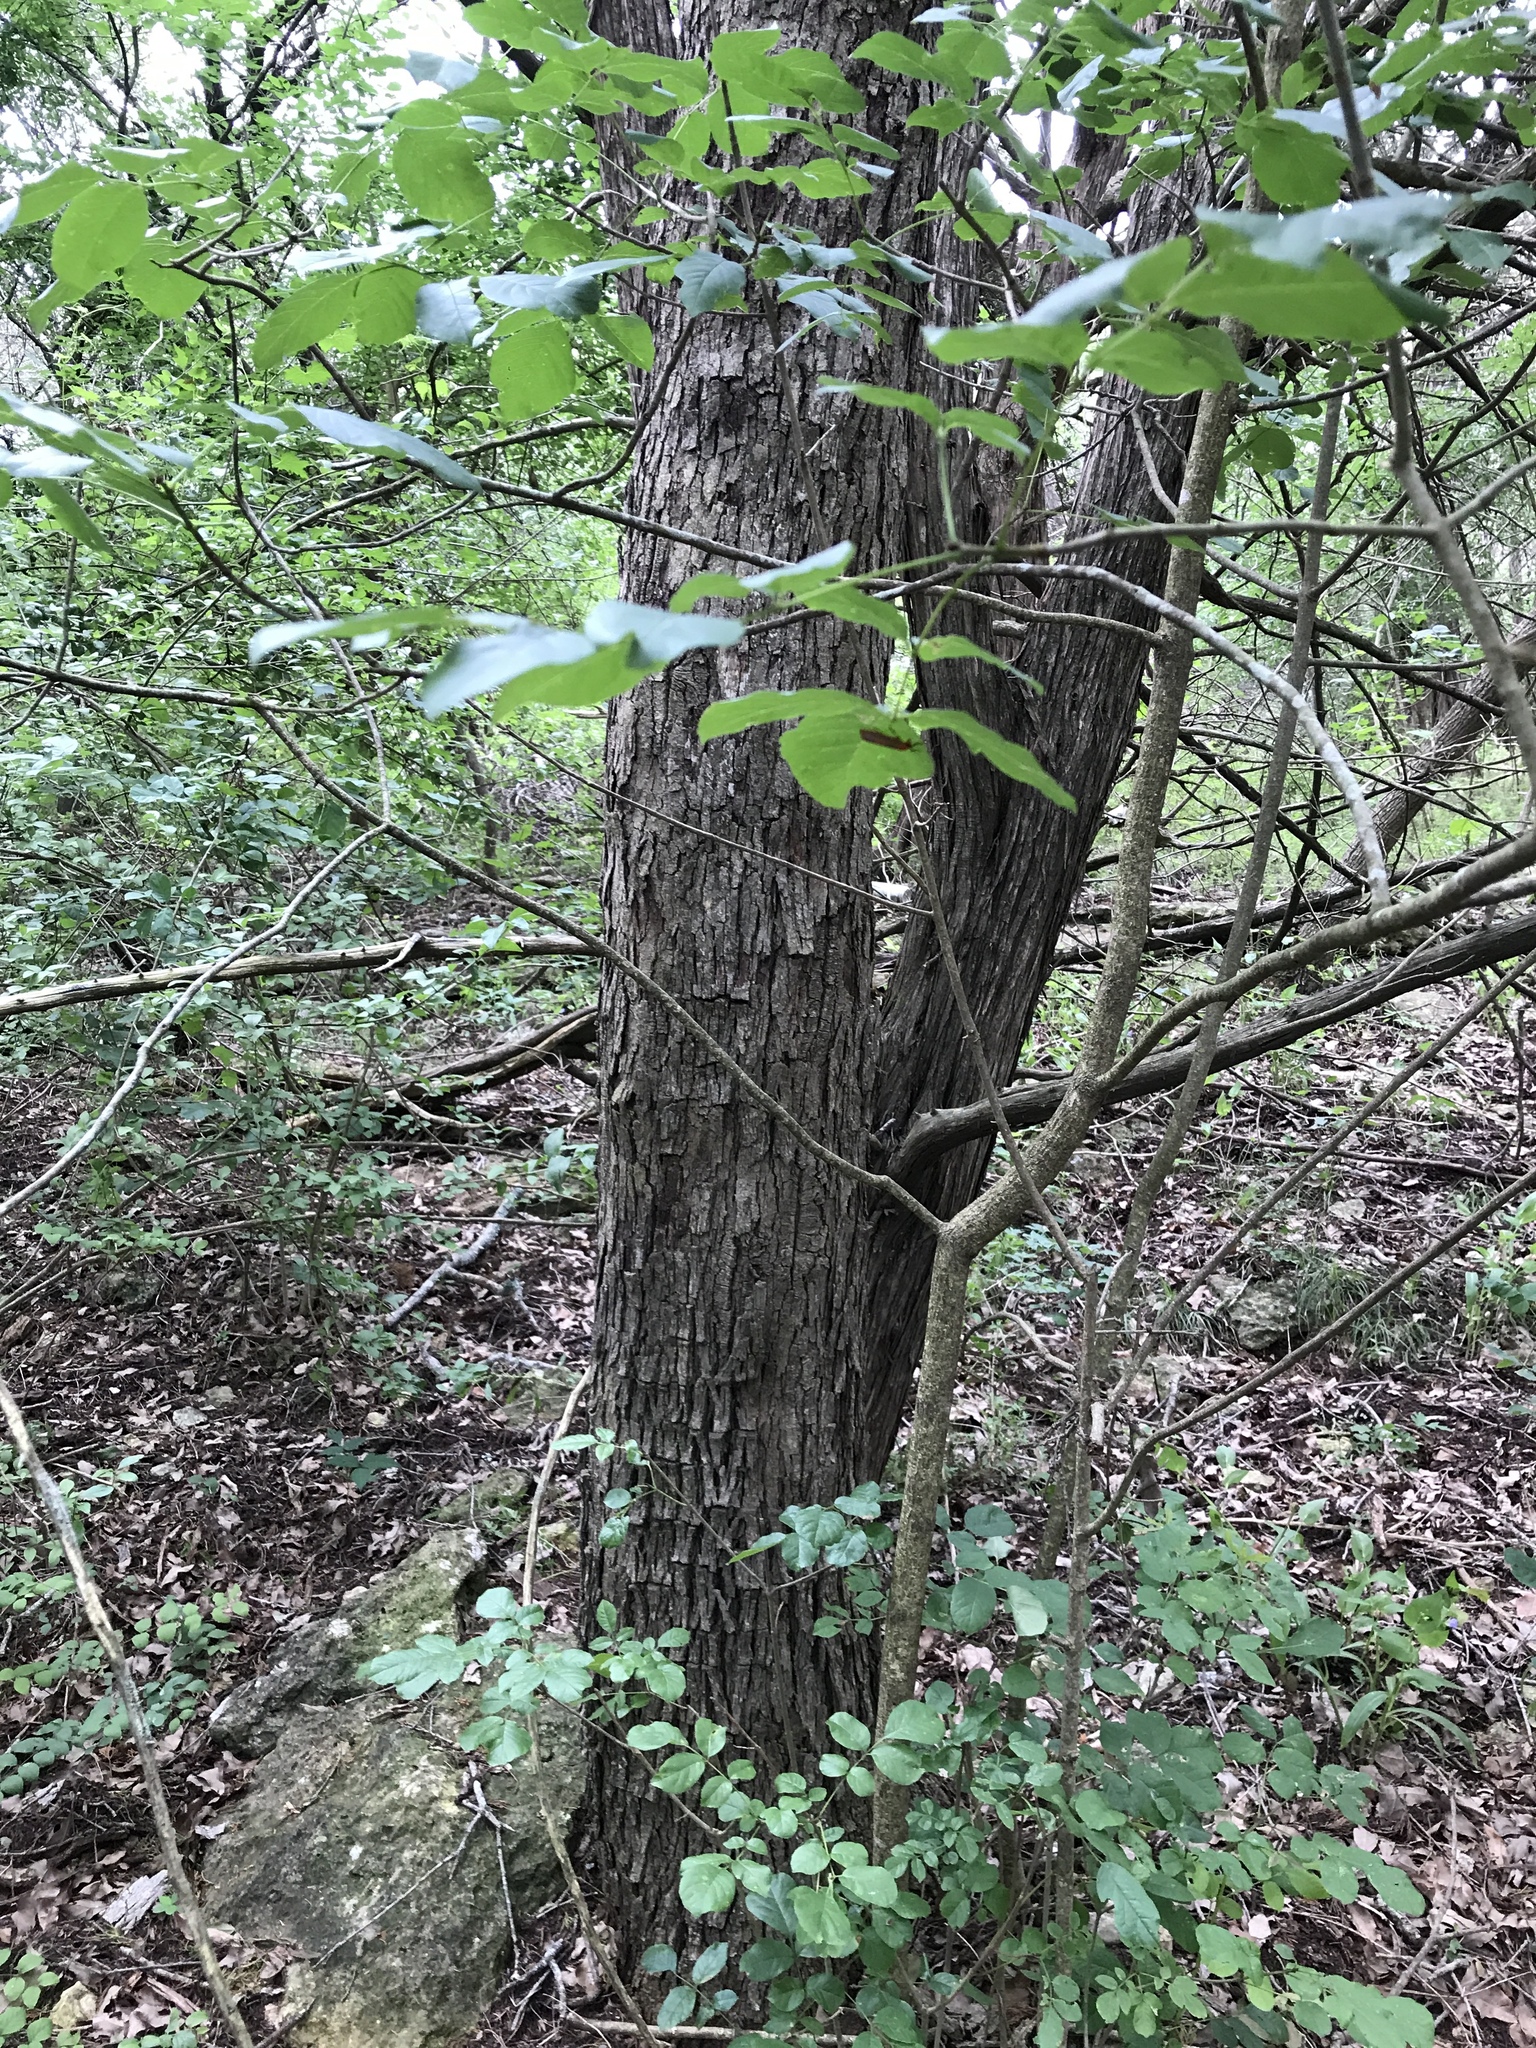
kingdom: Plantae
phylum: Tracheophyta
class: Magnoliopsida
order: Fagales
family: Fagaceae
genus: Quercus
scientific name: Quercus sinuata
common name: Durand oak
